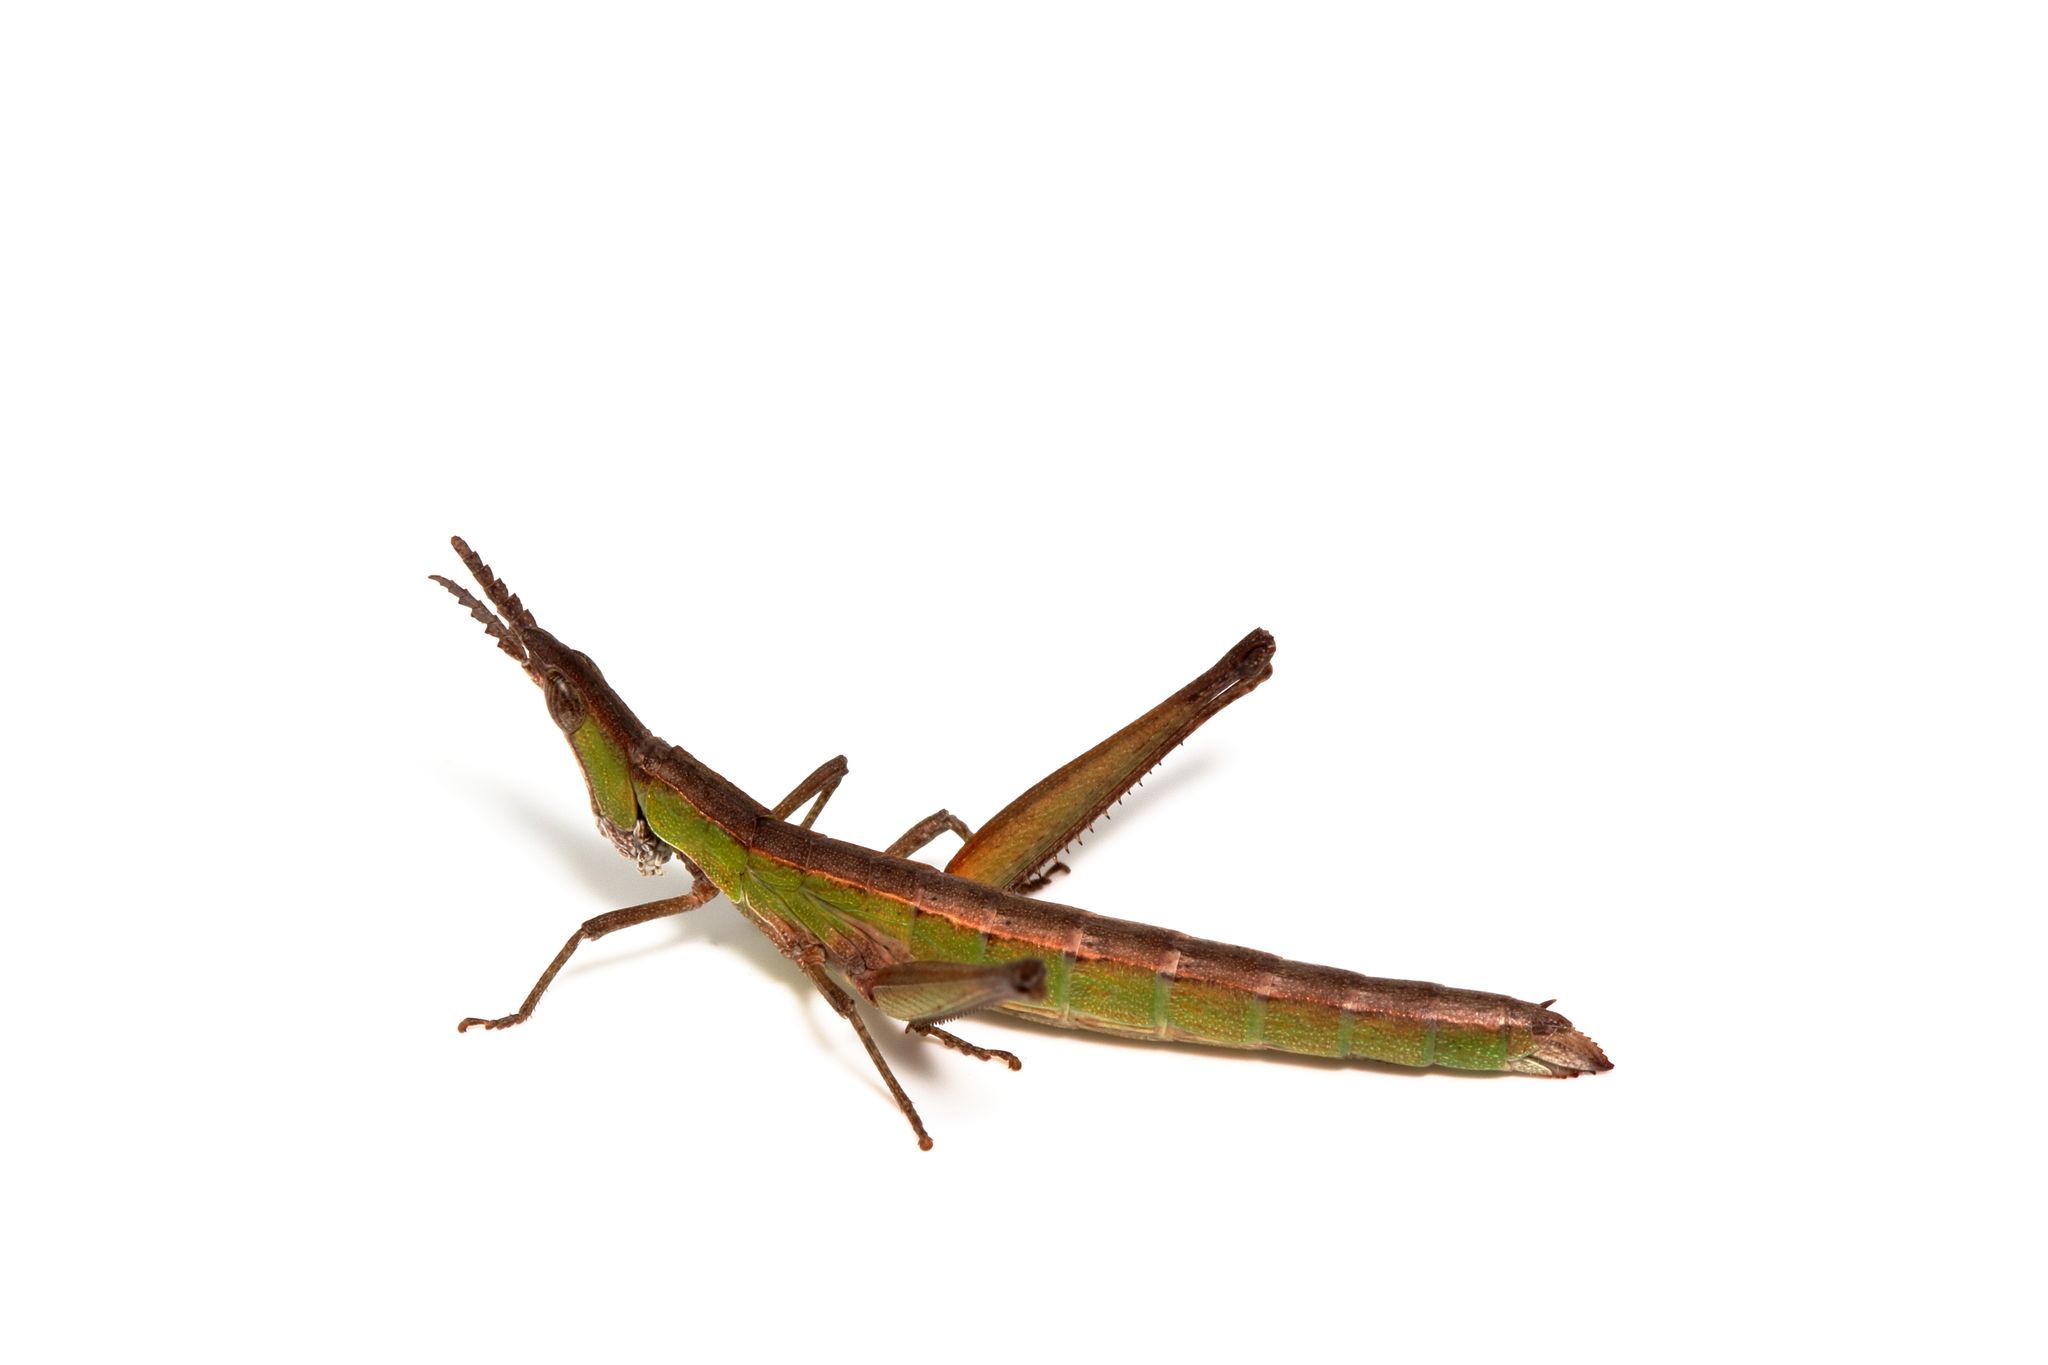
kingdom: Animalia
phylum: Arthropoda
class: Insecta
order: Orthoptera
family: Morabidae
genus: Keyacris
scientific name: Keyacris scurra
